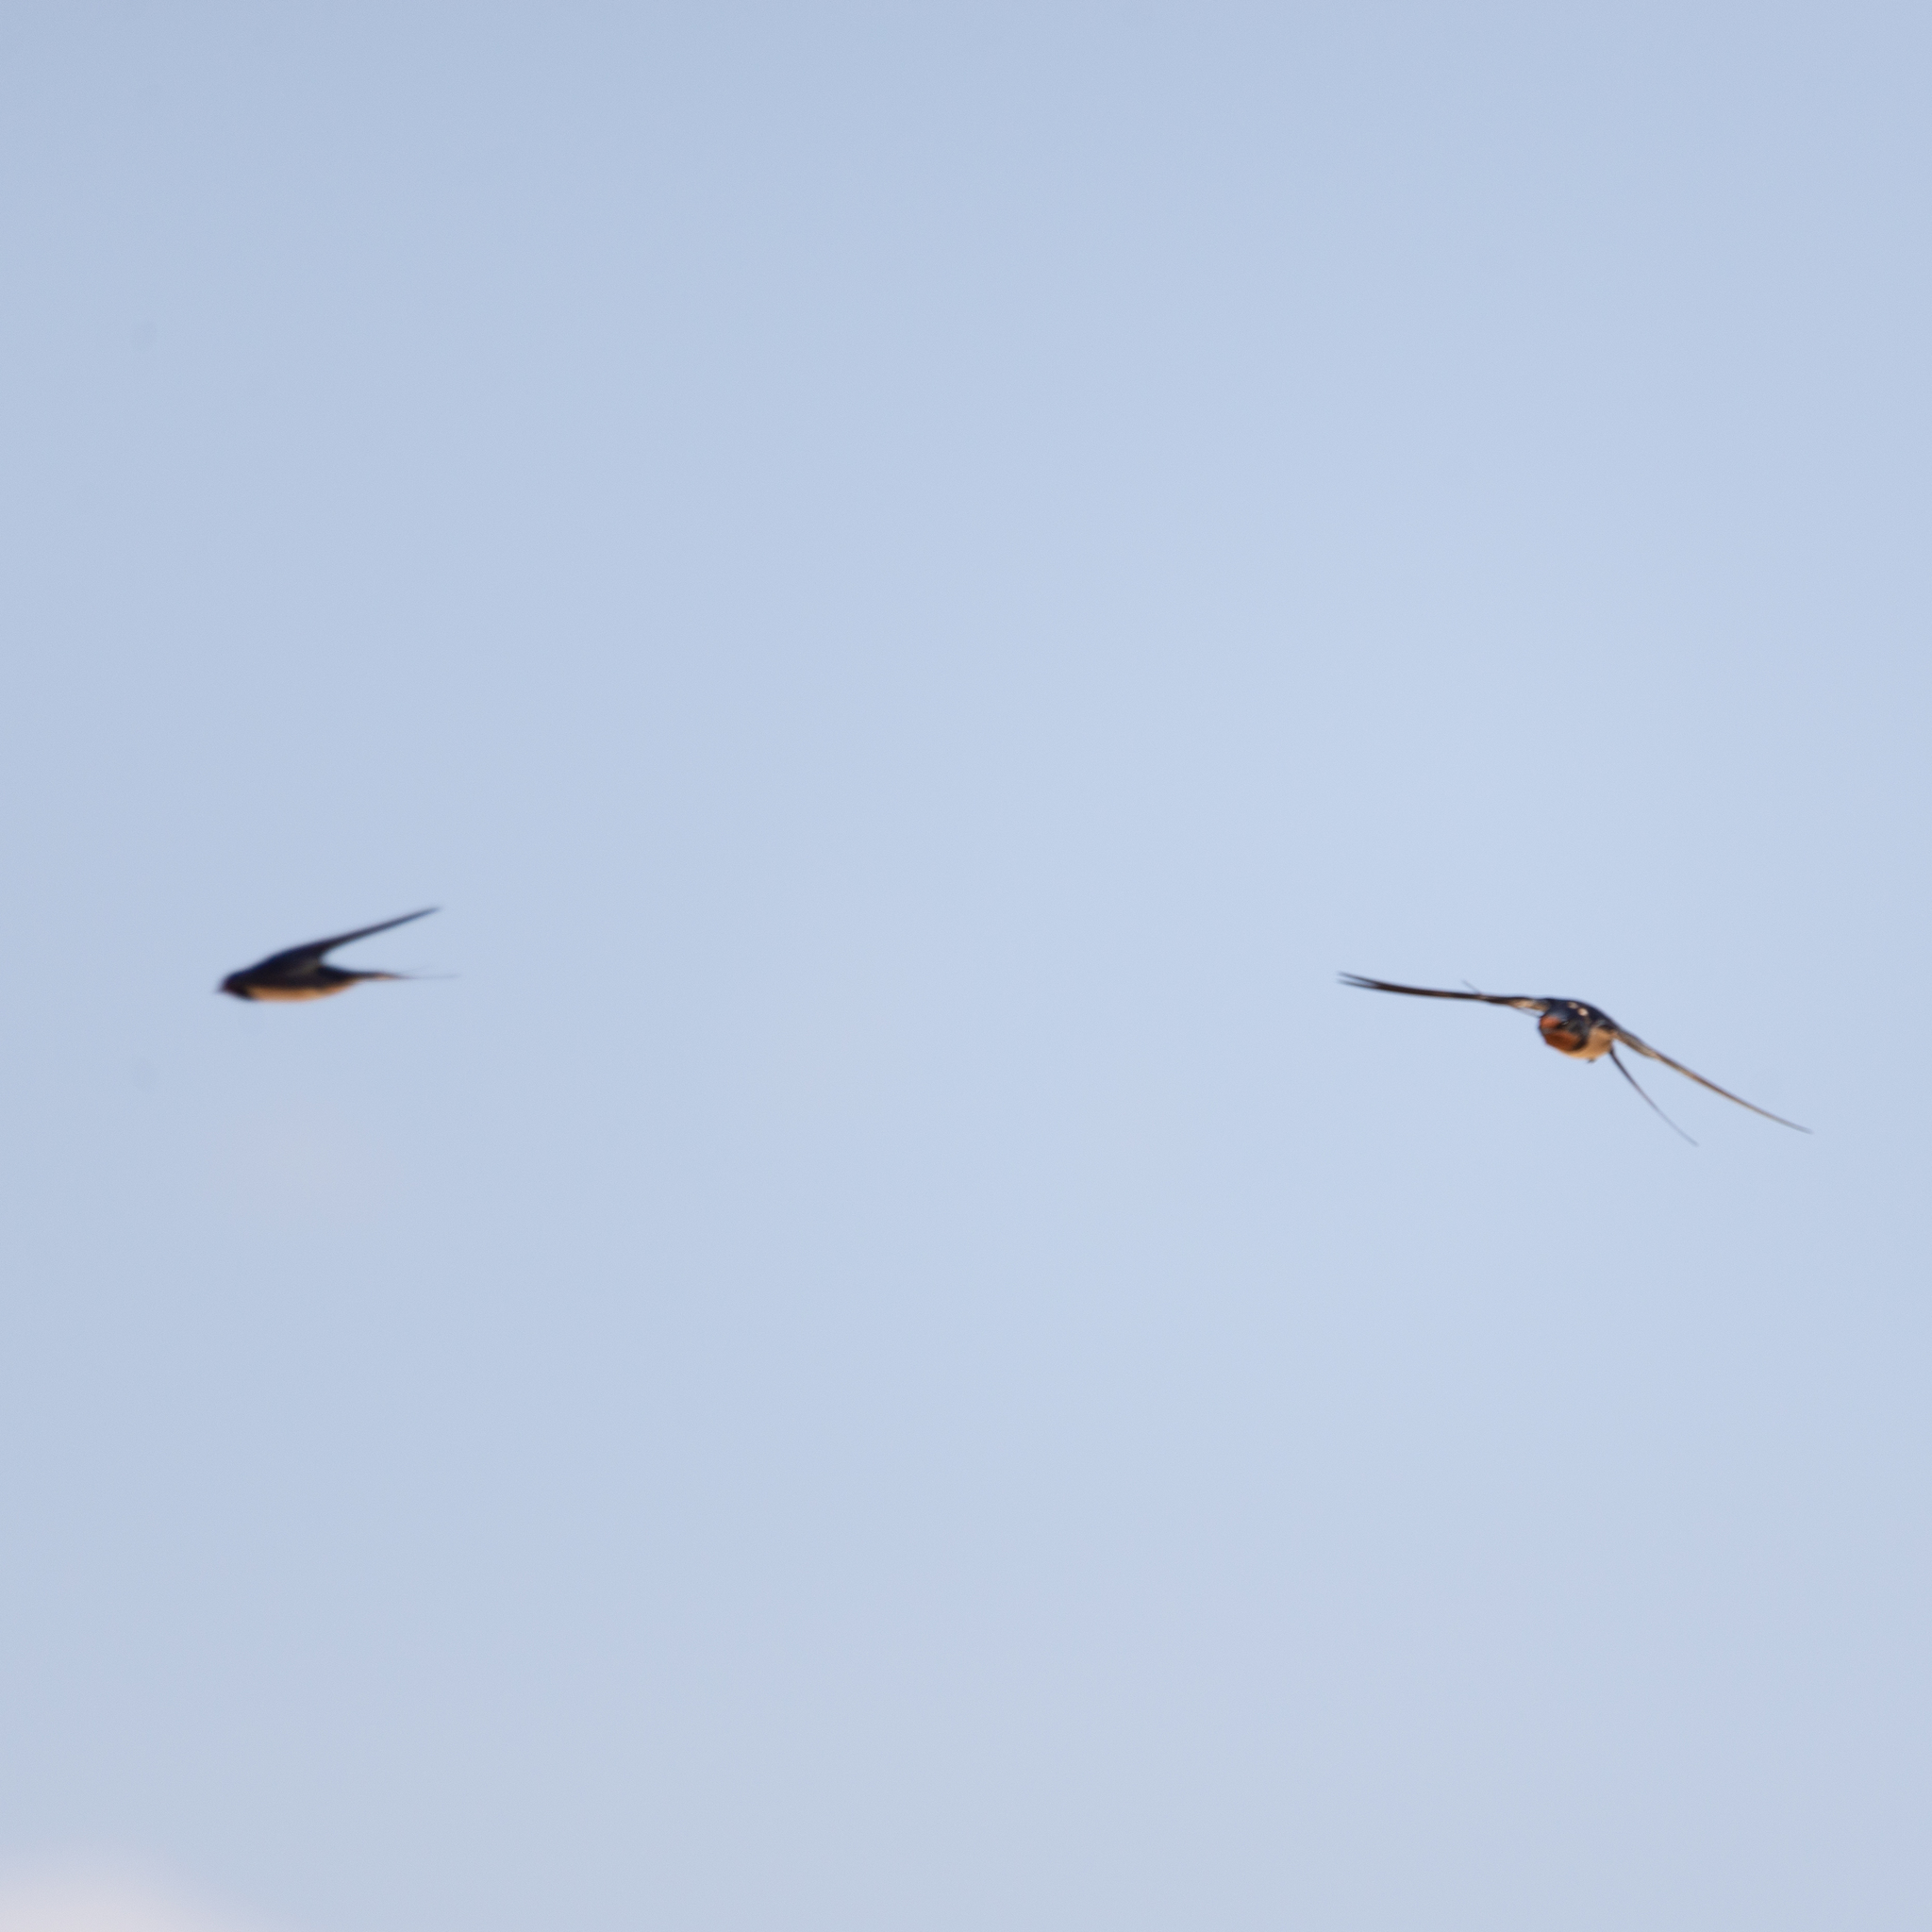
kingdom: Animalia
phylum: Chordata
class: Aves
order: Passeriformes
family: Hirundinidae
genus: Hirundo
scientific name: Hirundo rustica
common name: Barn swallow
